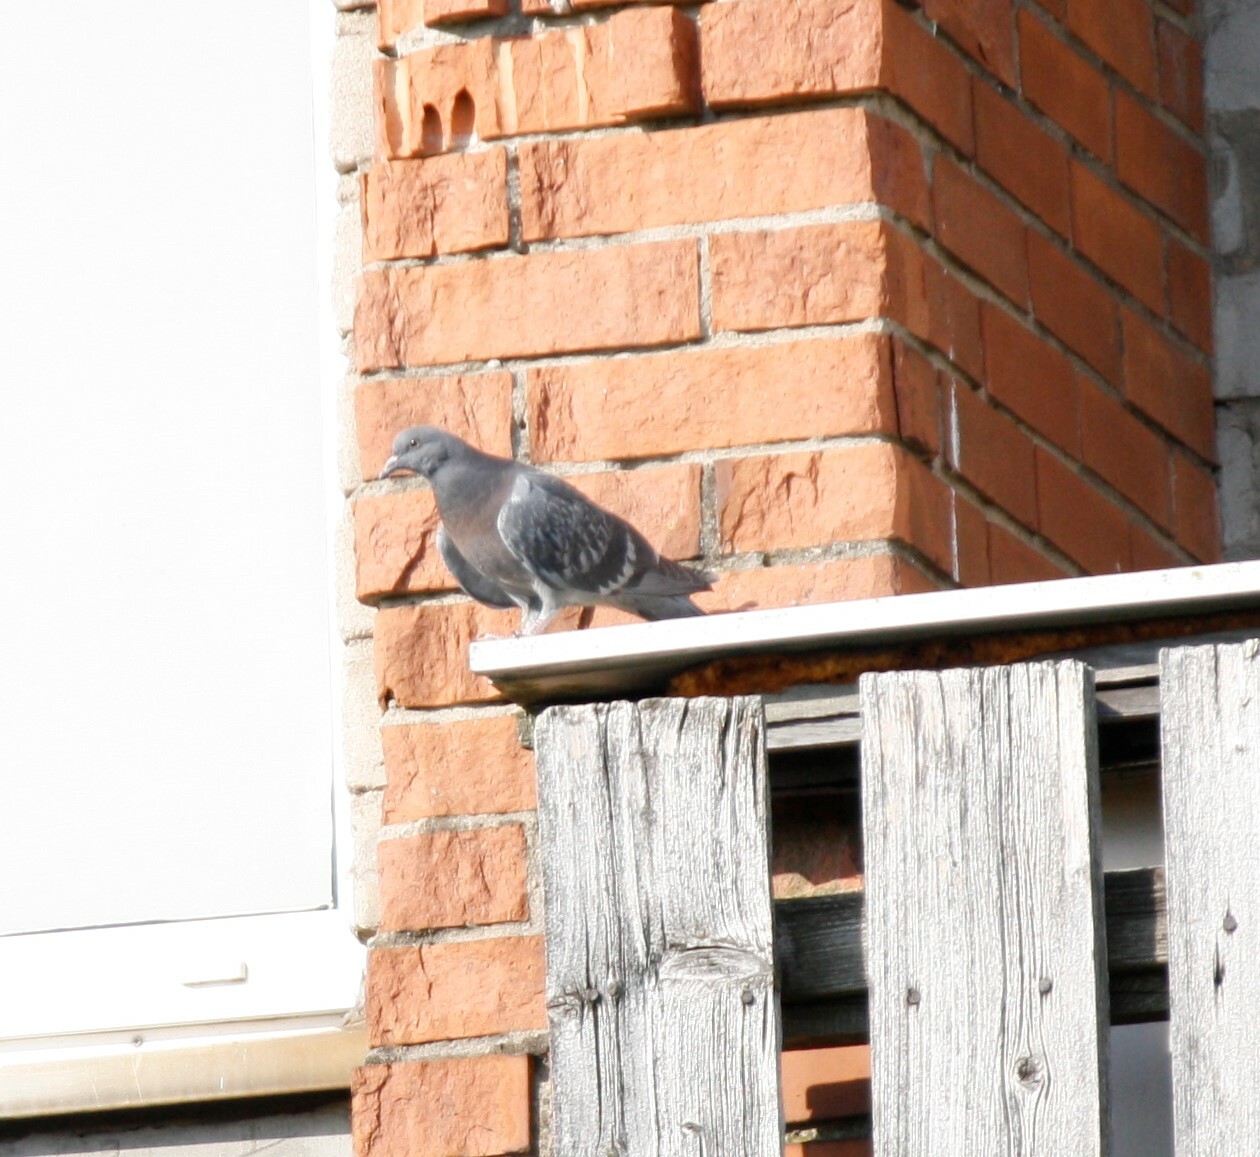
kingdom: Animalia
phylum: Chordata
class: Aves
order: Columbiformes
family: Columbidae
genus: Columba
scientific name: Columba livia
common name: Rock pigeon
